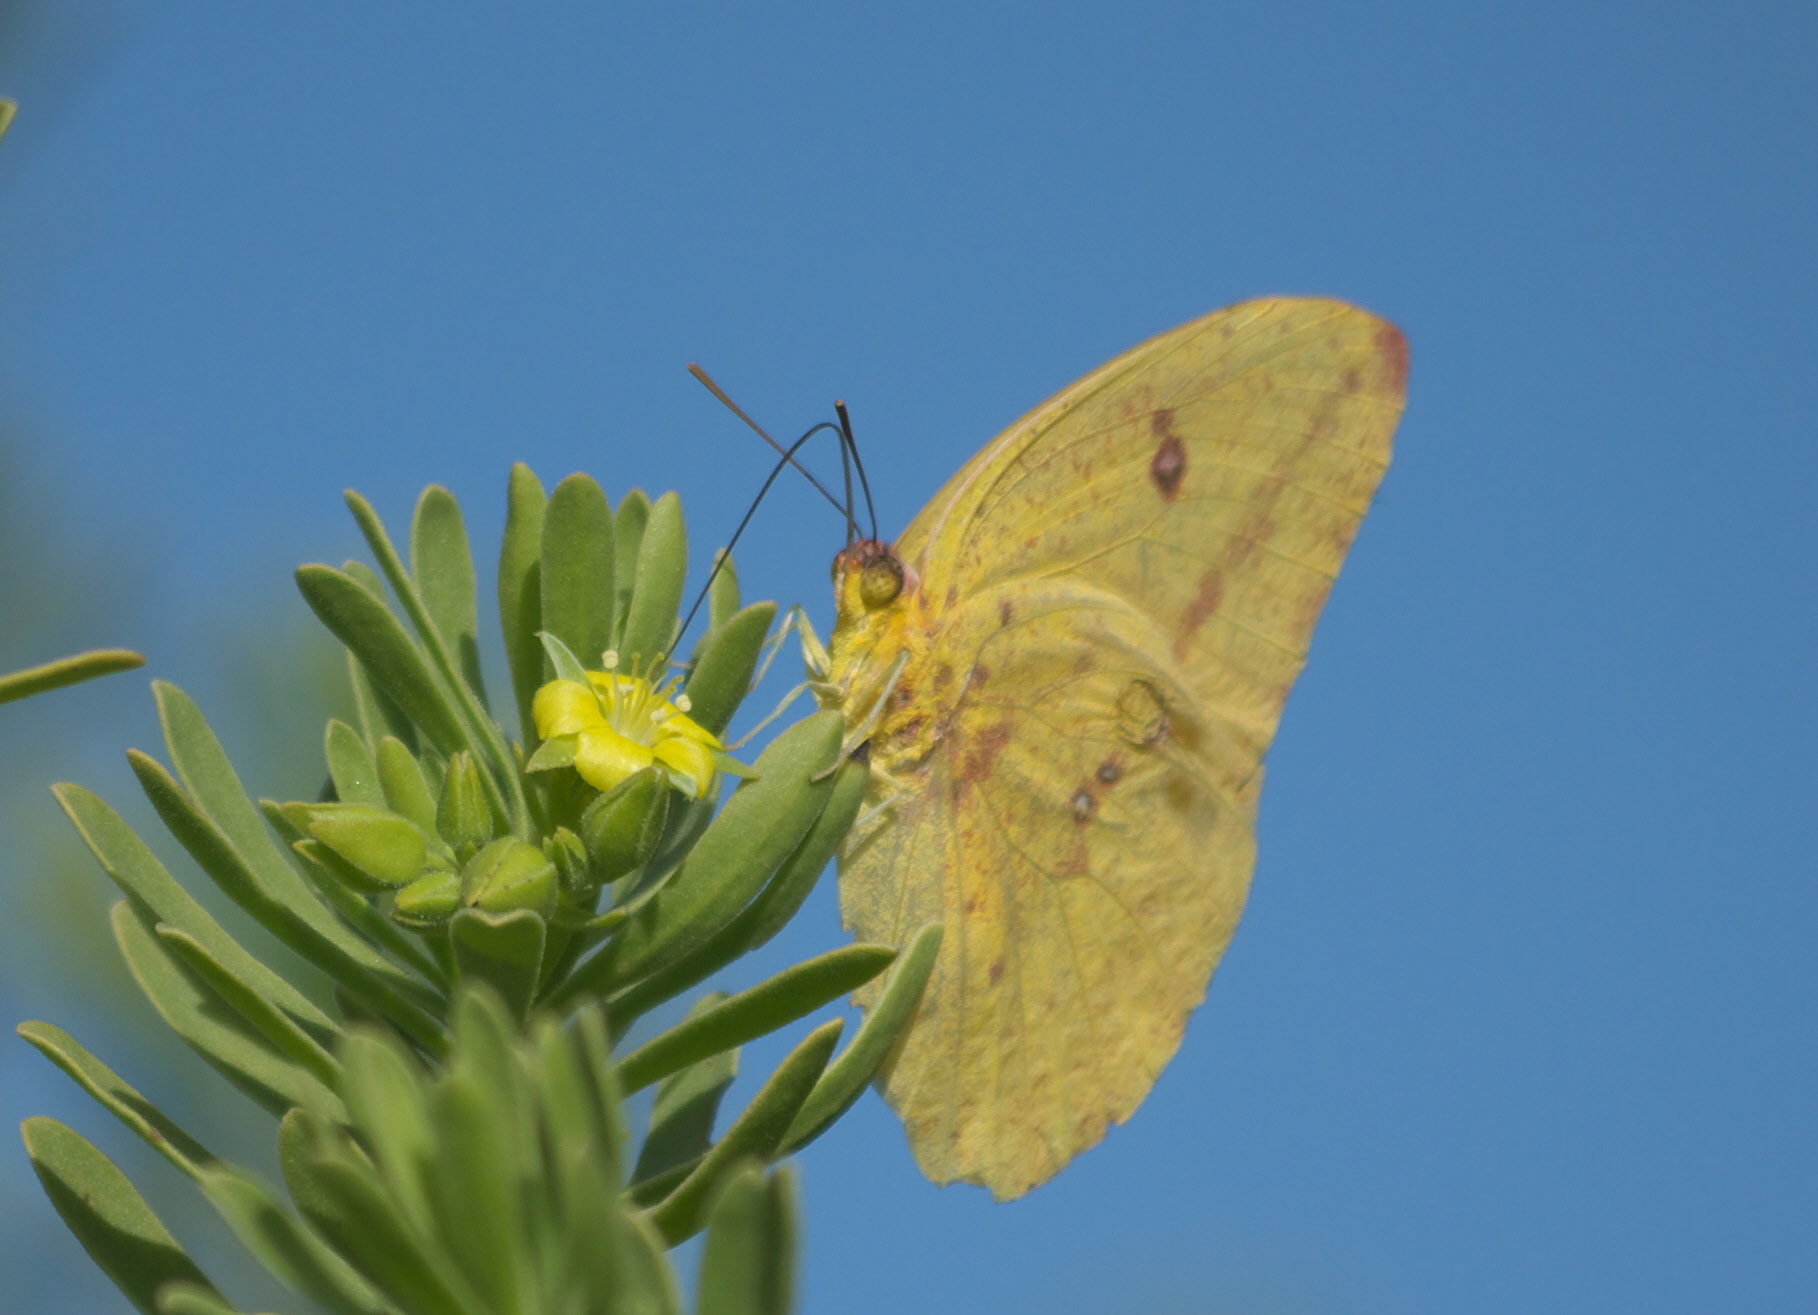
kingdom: Animalia
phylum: Arthropoda
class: Insecta
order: Lepidoptera
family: Pieridae
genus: Phoebis
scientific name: Phoebis agarithe
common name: Large orange sulphur
